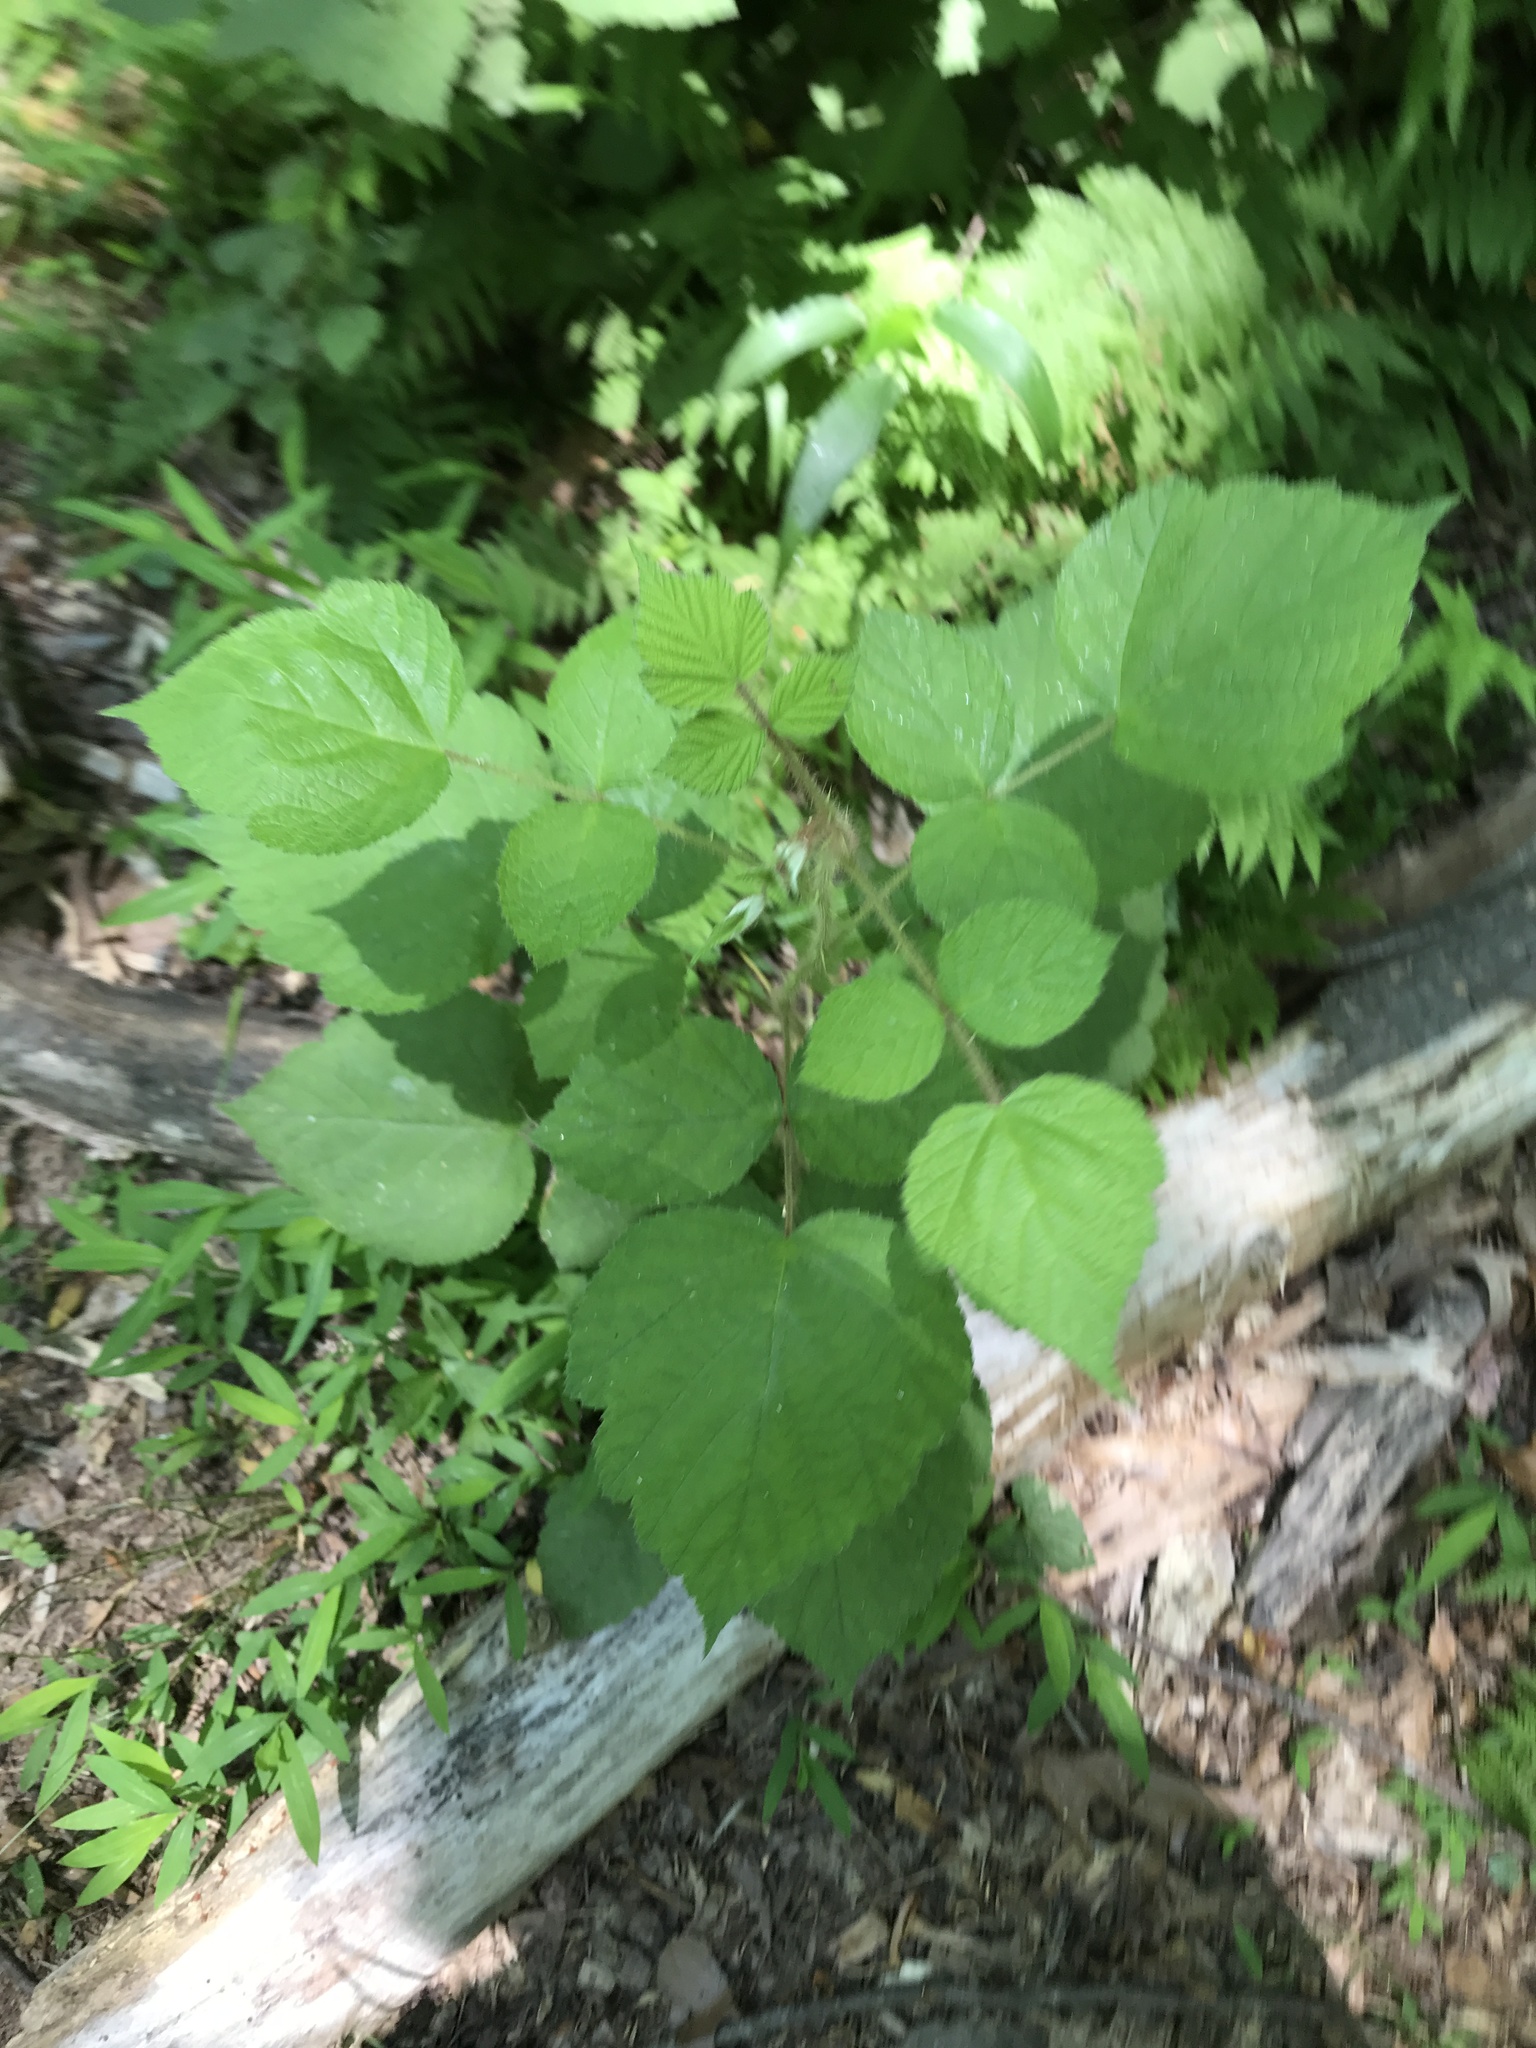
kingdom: Plantae
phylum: Tracheophyta
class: Magnoliopsida
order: Rosales
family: Rosaceae
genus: Rubus
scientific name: Rubus phoenicolasius
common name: Japanese wineberry
